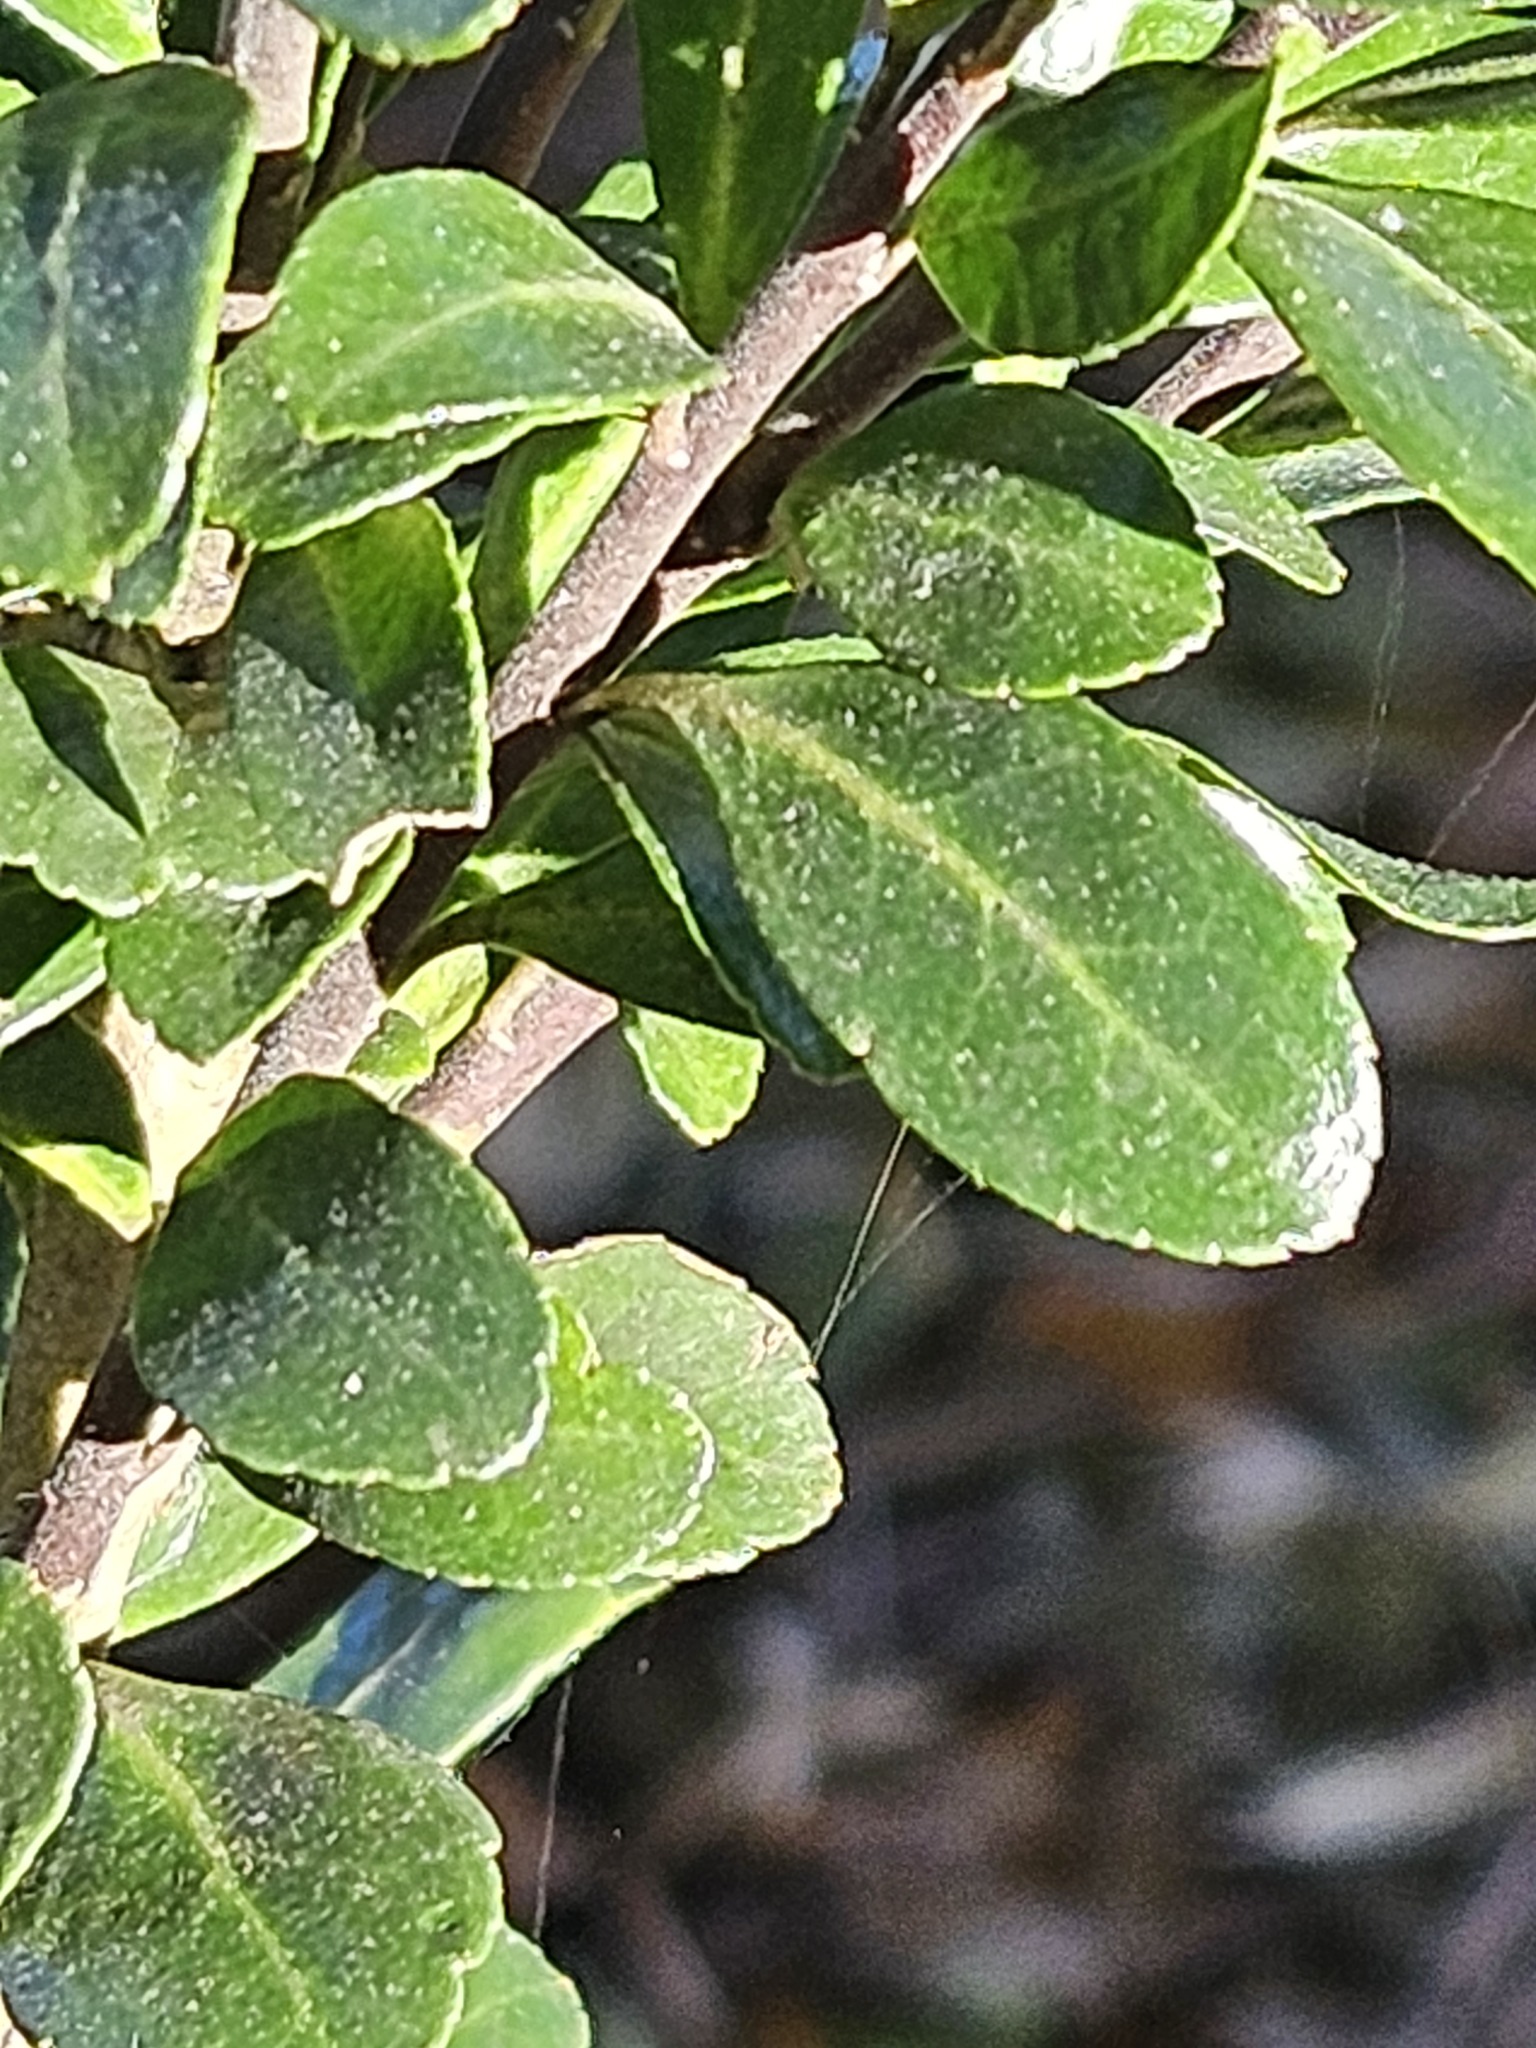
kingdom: Plantae
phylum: Tracheophyta
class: Magnoliopsida
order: Aquifoliales
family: Aquifoliaceae
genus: Ilex
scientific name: Ilex crenata
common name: Japanese holly
